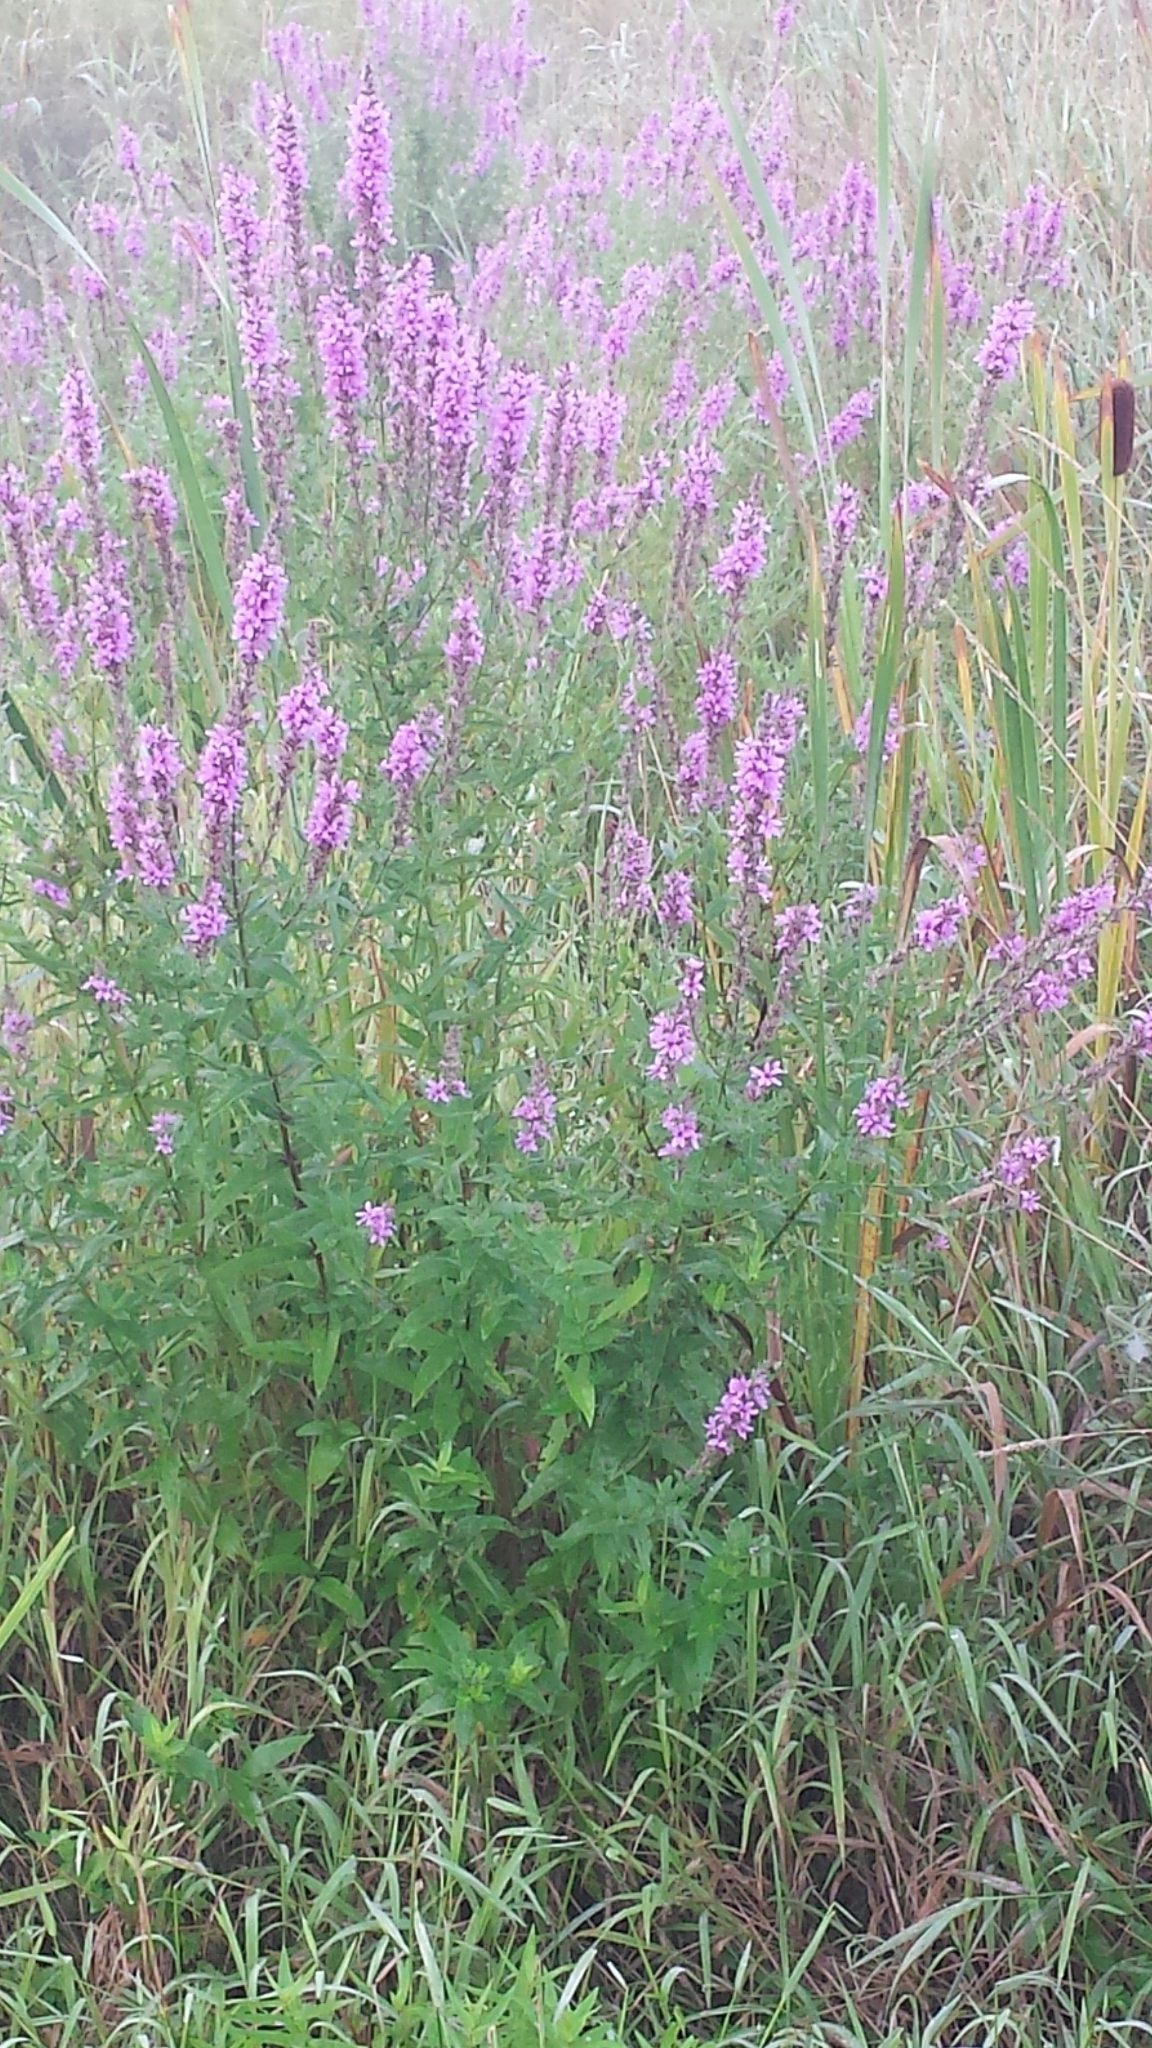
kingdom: Plantae
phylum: Tracheophyta
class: Magnoliopsida
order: Myrtales
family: Lythraceae
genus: Lythrum
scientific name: Lythrum salicaria
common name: Purple loosestrife
